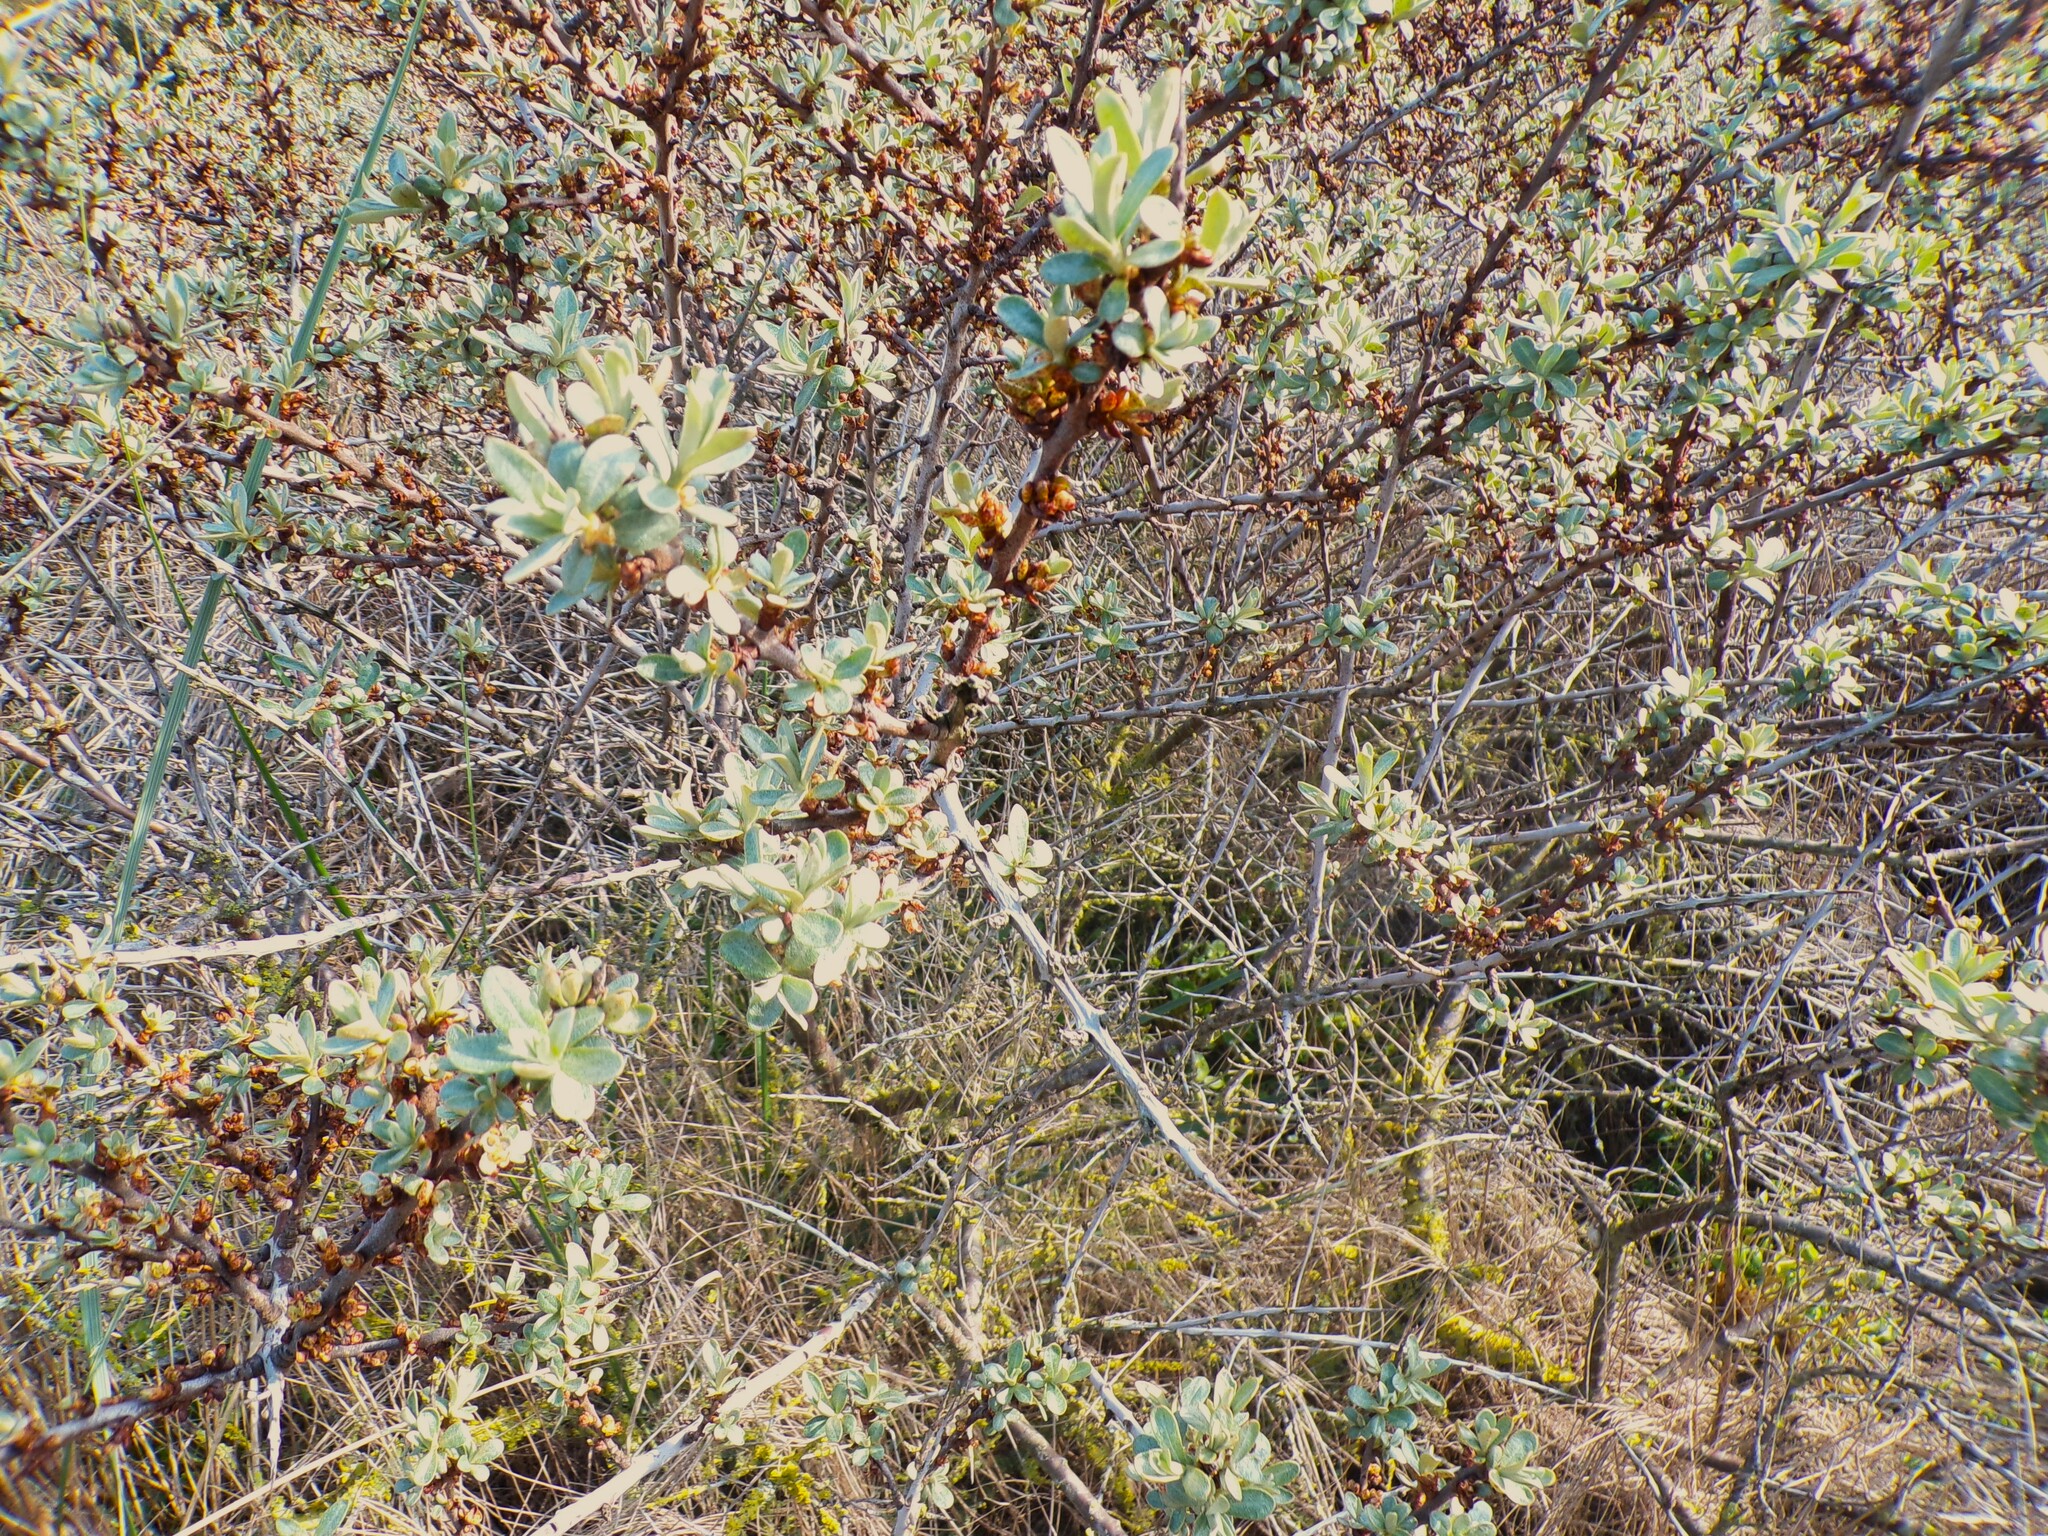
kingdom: Plantae
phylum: Tracheophyta
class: Magnoliopsida
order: Rosales
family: Elaeagnaceae
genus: Hippophae
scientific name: Hippophae rhamnoides
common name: Sea-buckthorn
